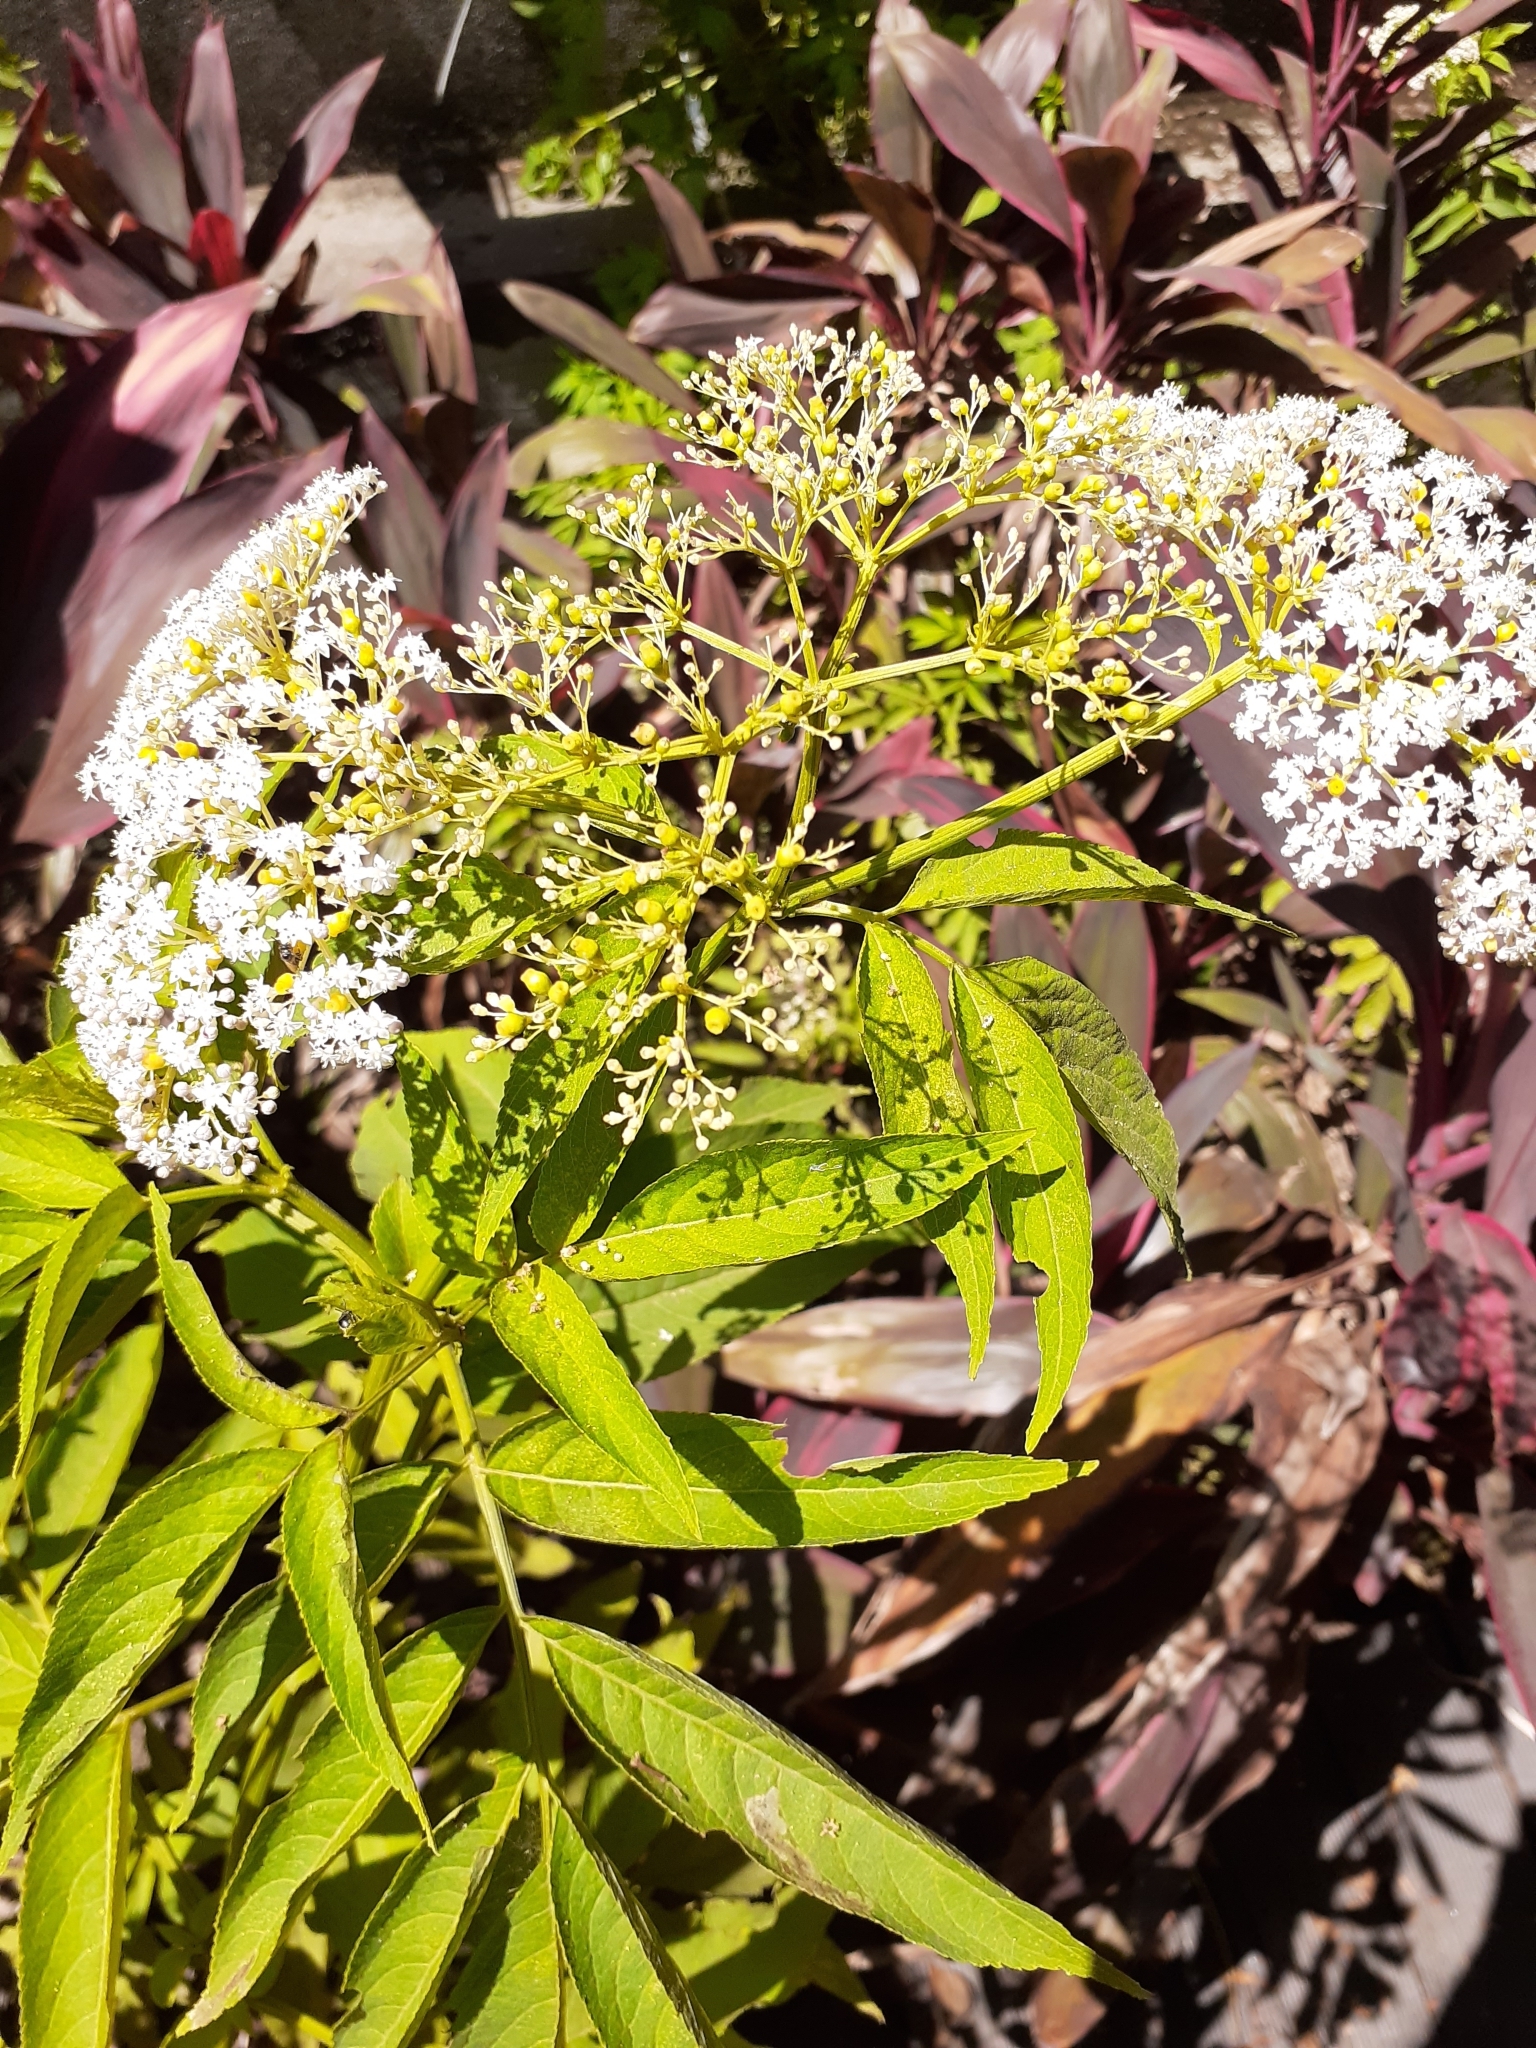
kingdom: Plantae
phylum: Tracheophyta
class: Magnoliopsida
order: Dipsacales
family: Viburnaceae
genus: Sambucus
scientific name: Sambucus javanica
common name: Chinese elder
